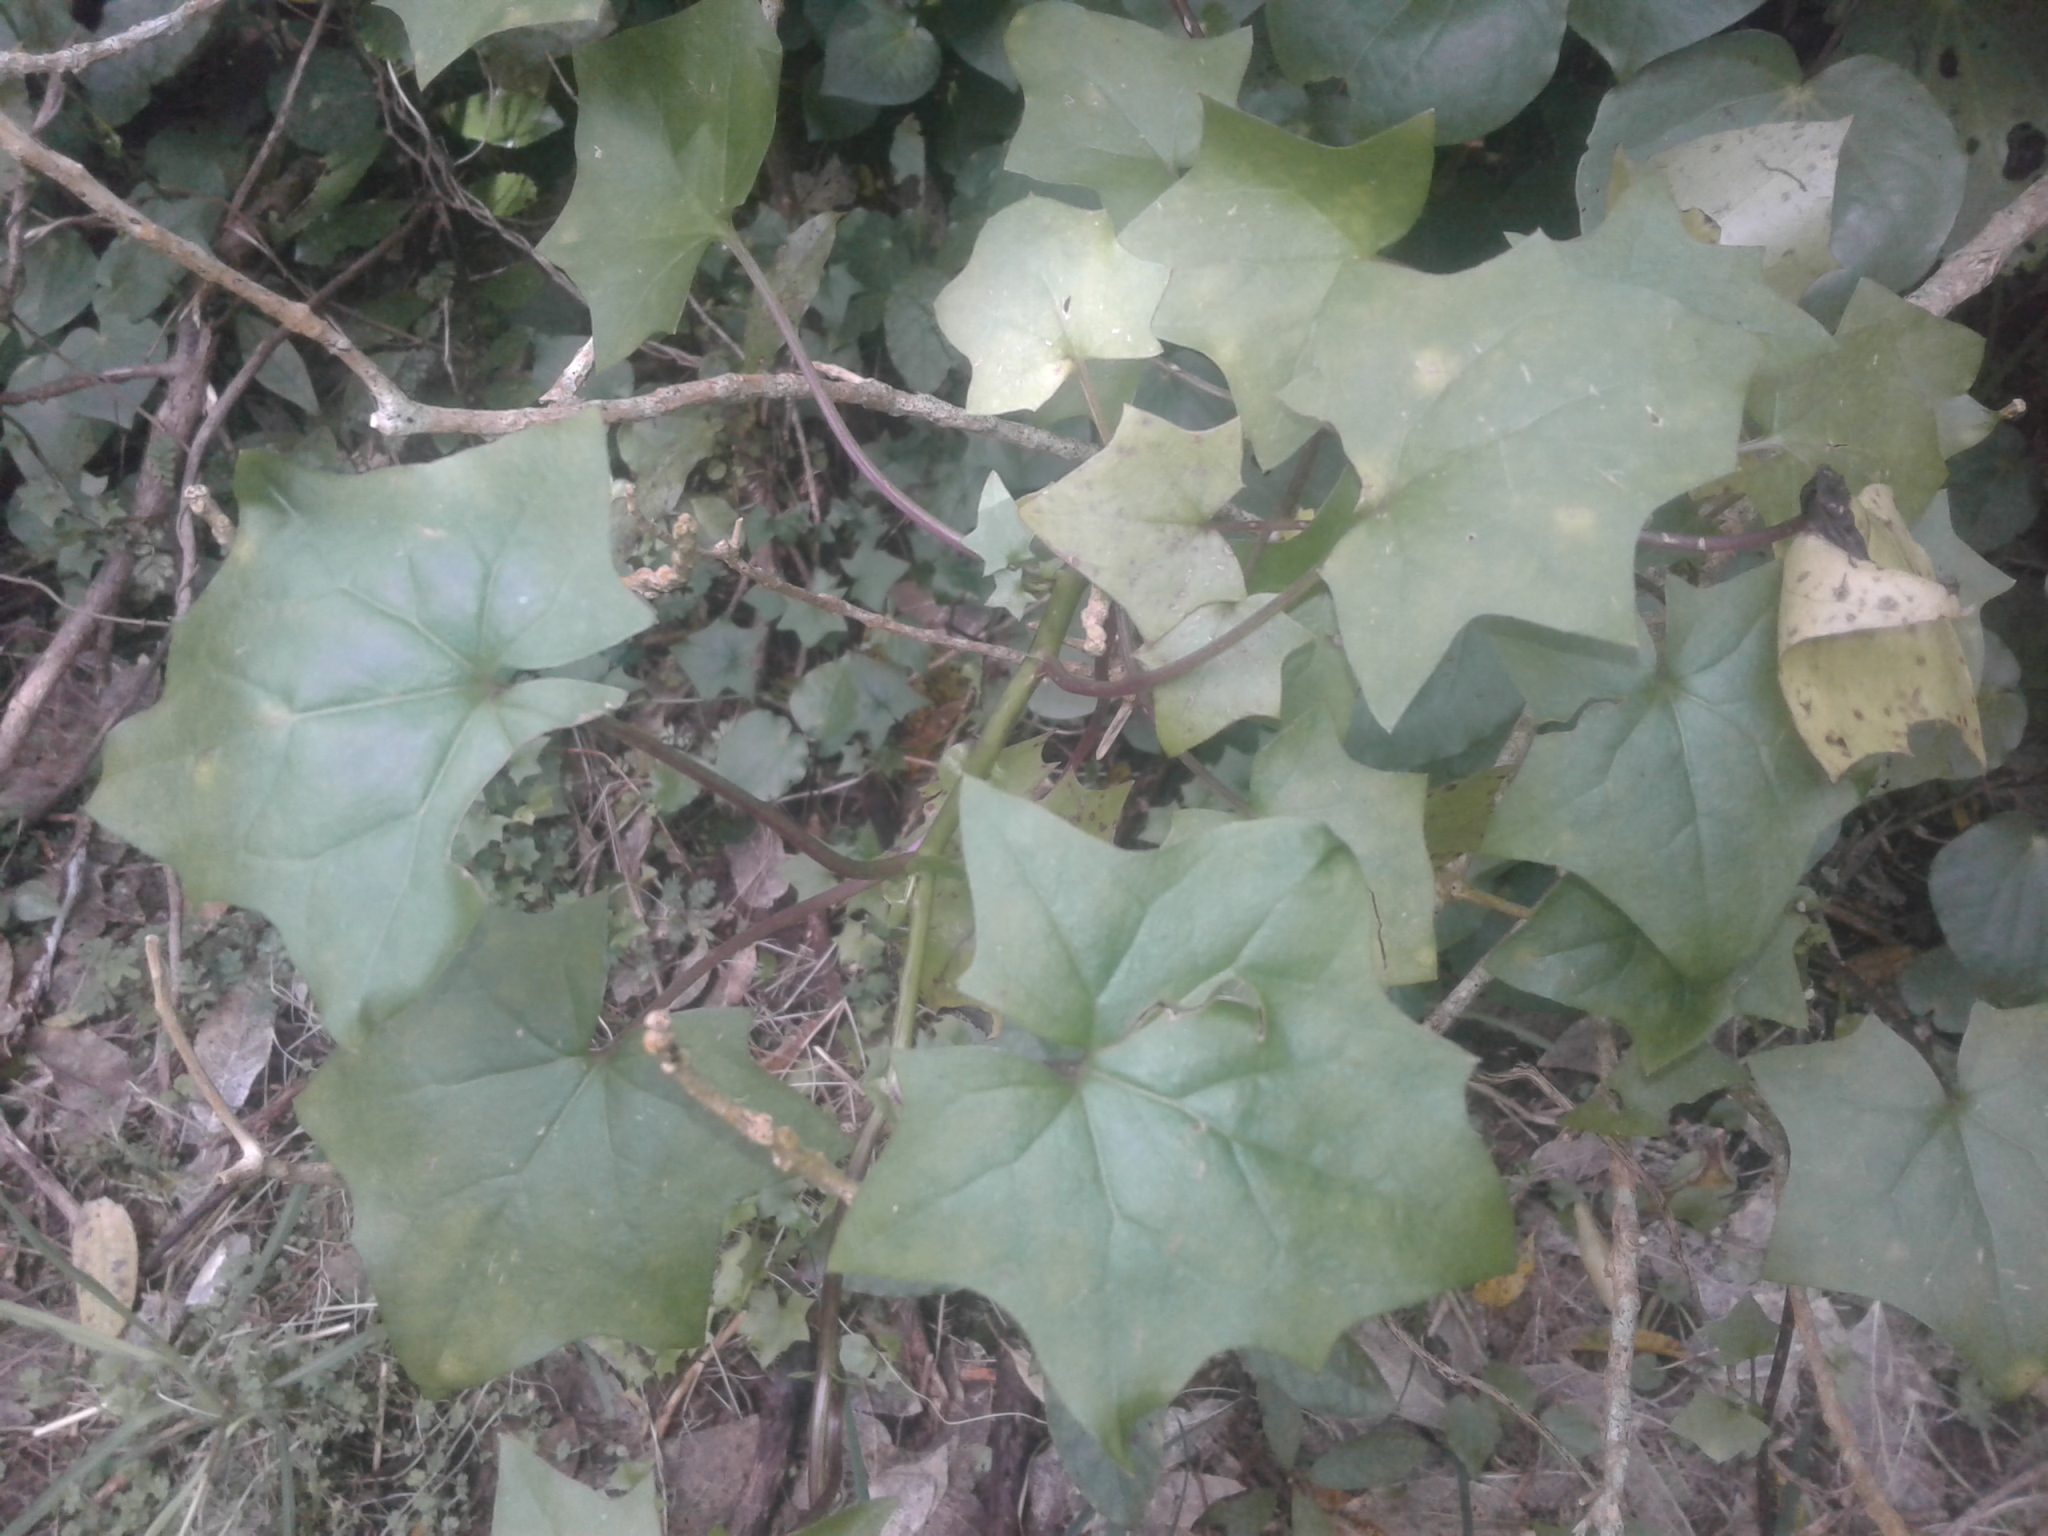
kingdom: Plantae
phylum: Tracheophyta
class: Magnoliopsida
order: Asterales
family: Asteraceae
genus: Delairea
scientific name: Delairea odorata
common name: Cape-ivy
